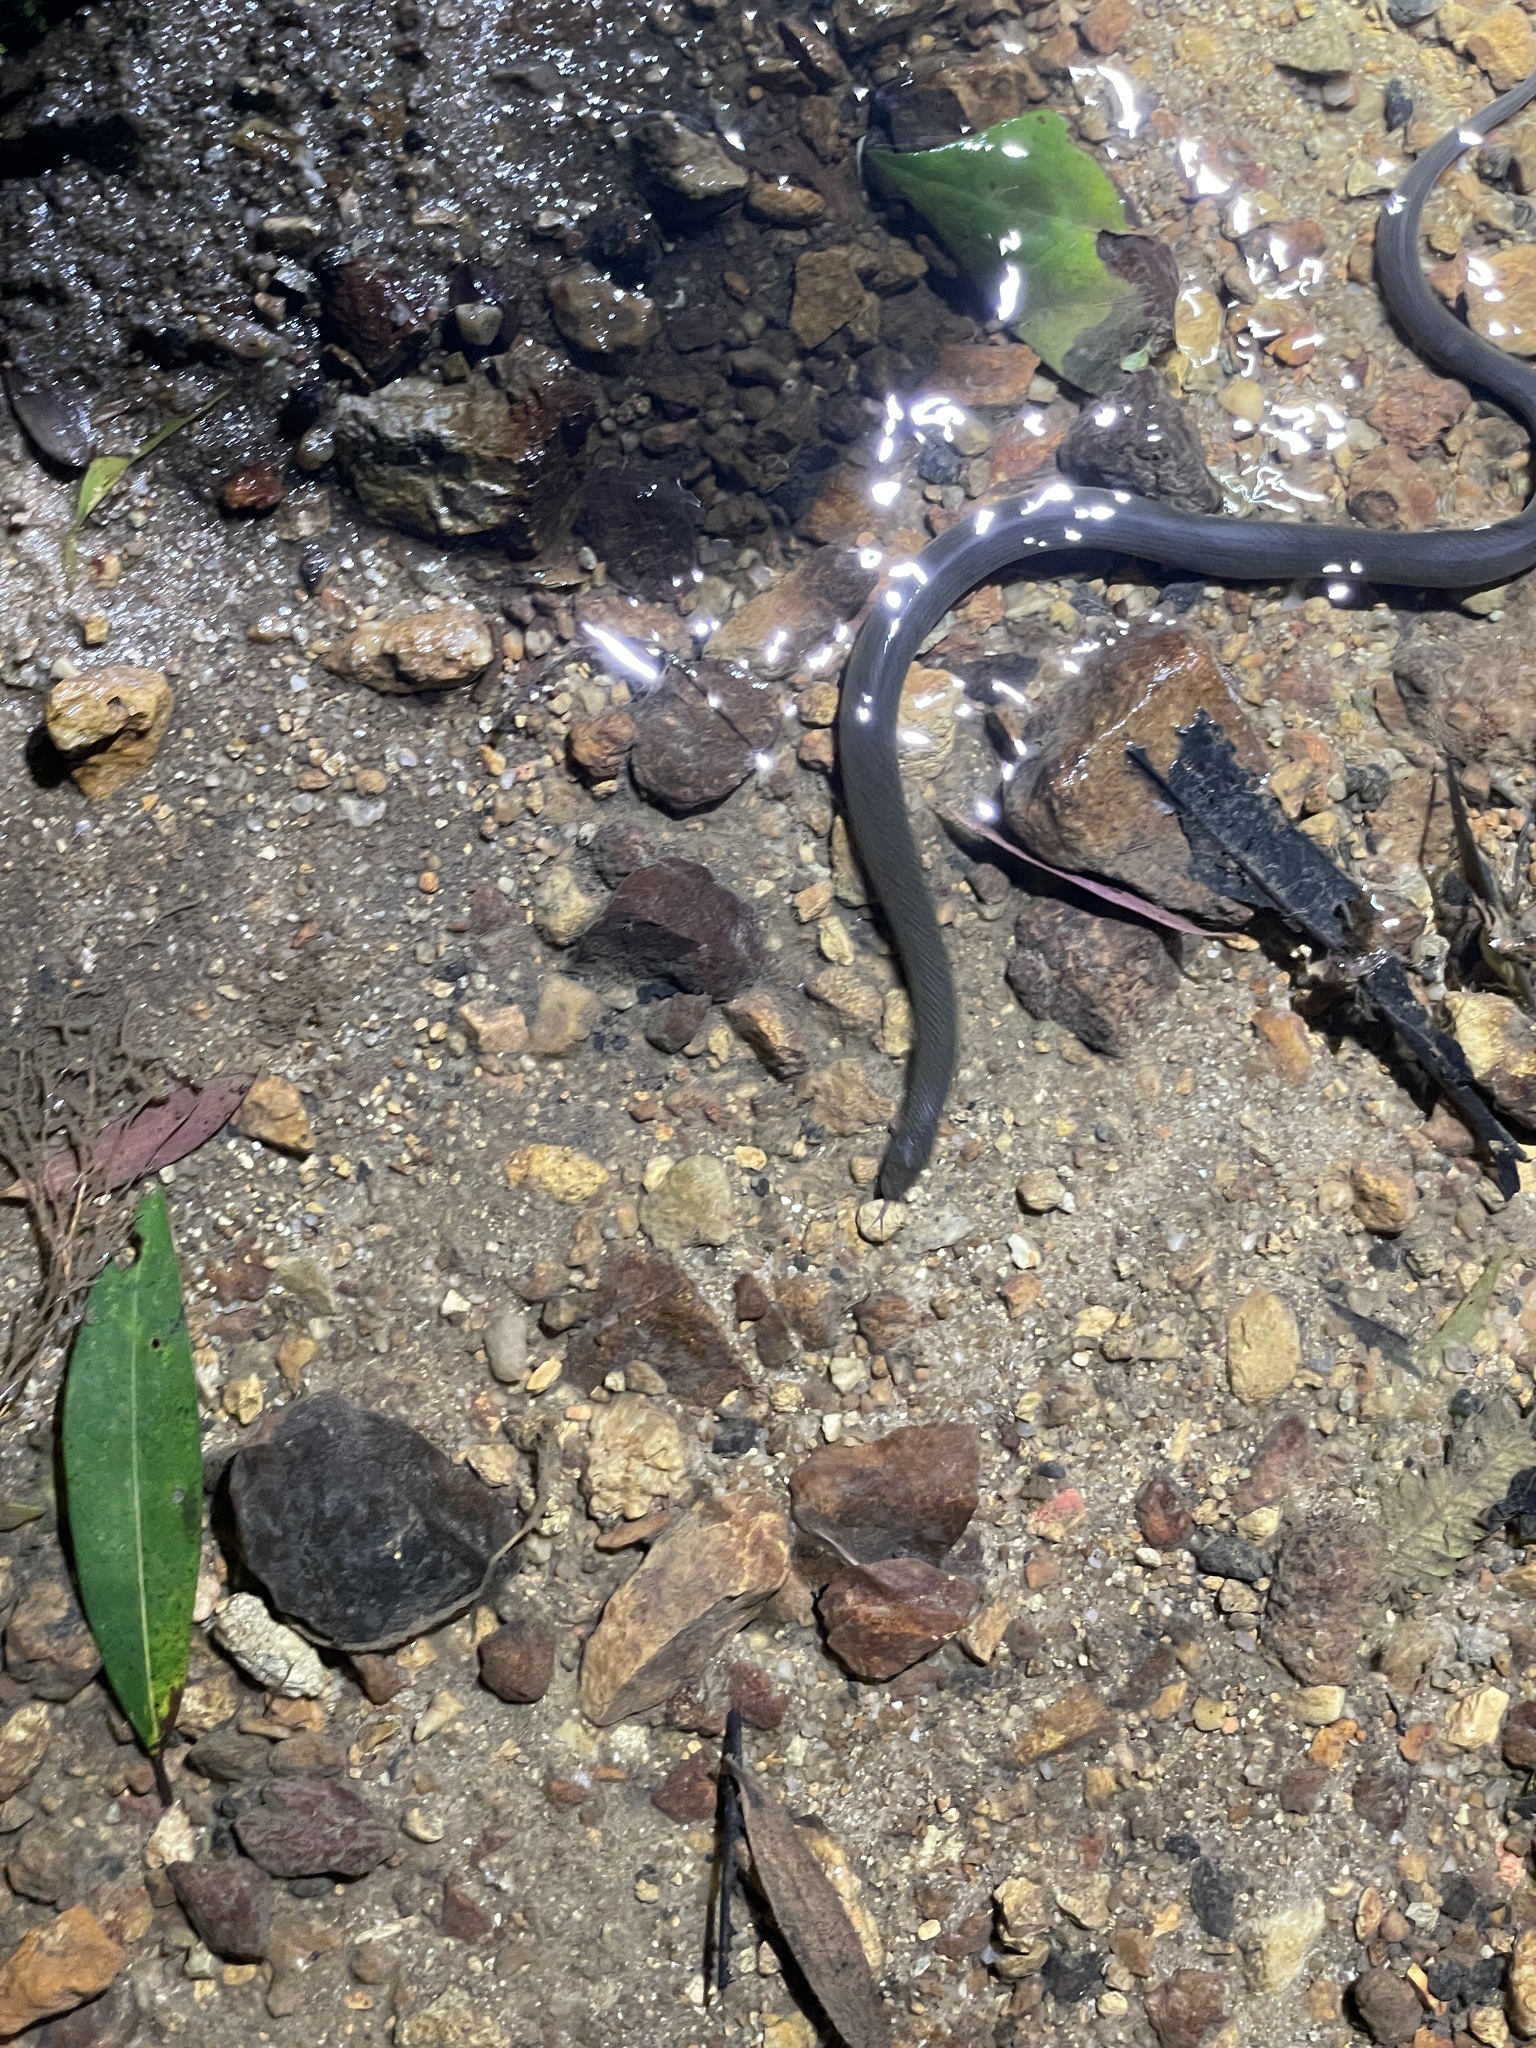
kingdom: Animalia
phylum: Chordata
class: Squamata
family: Colubridae
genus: Opisthotropis
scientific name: Opisthotropis andersonii
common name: Anderson's mountain keelback
